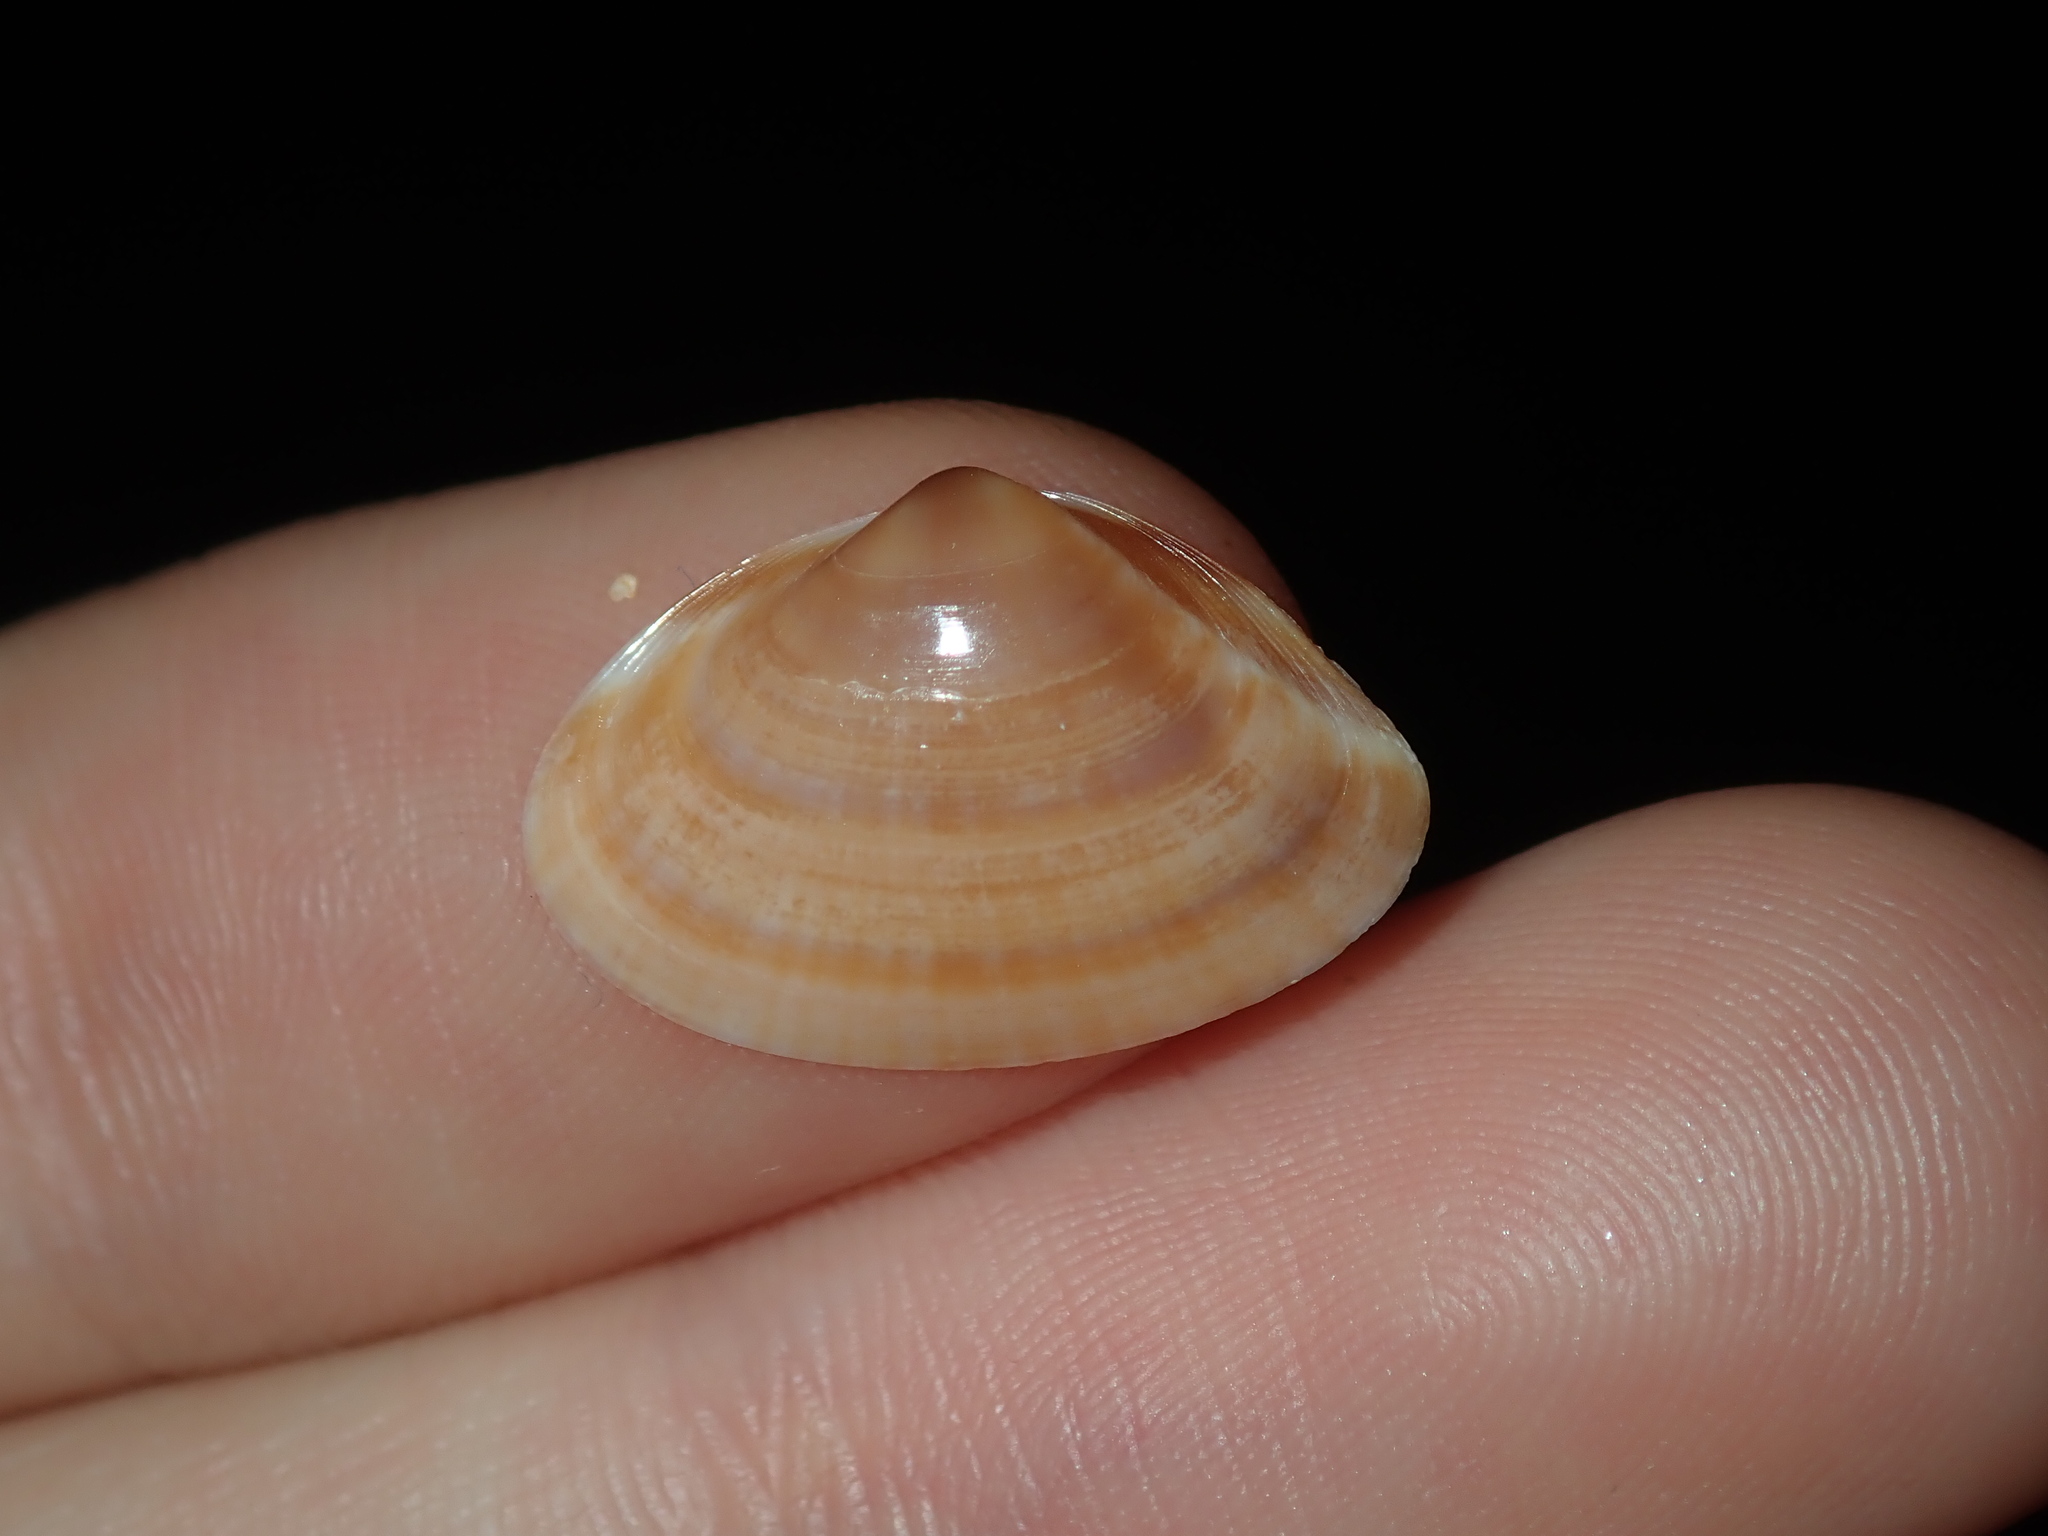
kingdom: Animalia
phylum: Mollusca
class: Bivalvia
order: Venerida
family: Mactridae
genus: Mactra
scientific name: Mactra pusilla
